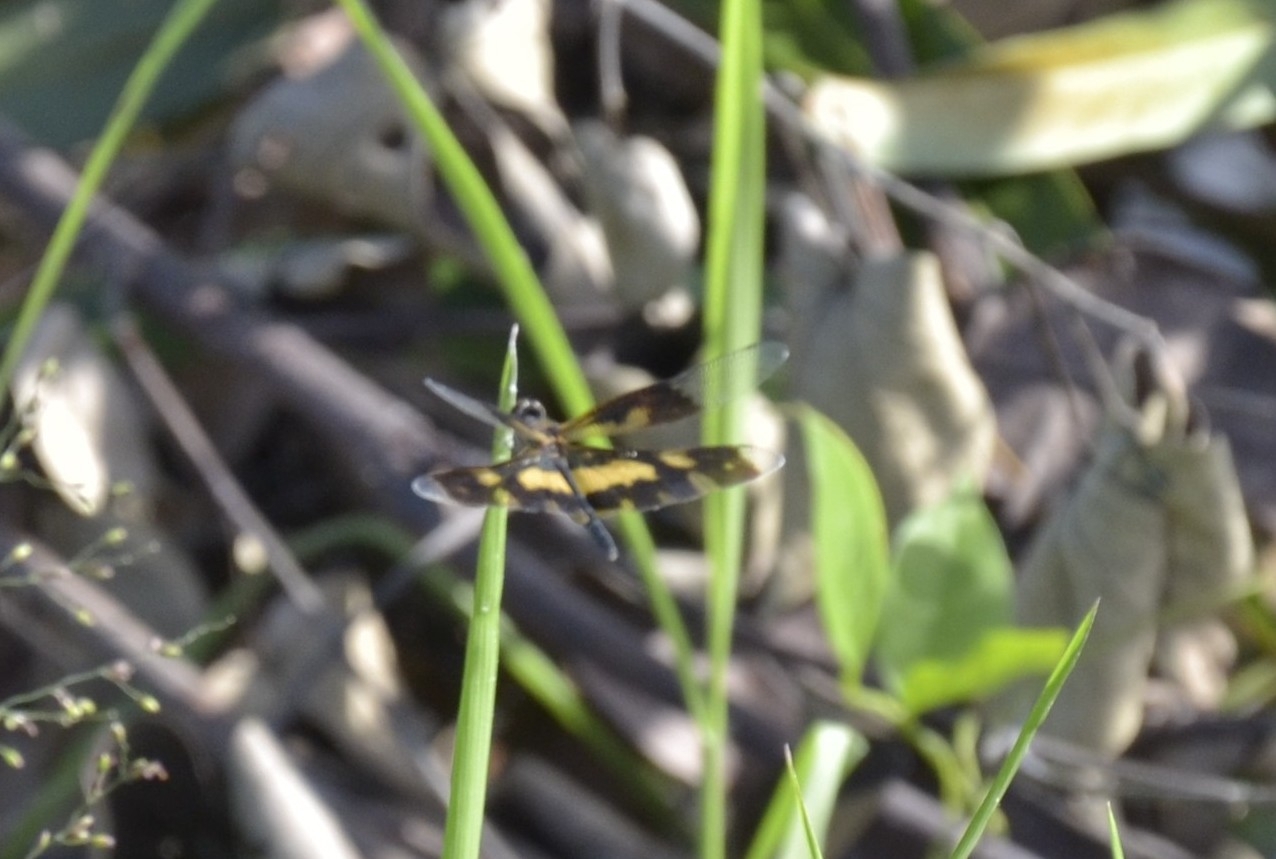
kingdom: Animalia
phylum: Arthropoda
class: Insecta
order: Odonata
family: Libellulidae
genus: Rhyothemis
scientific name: Rhyothemis variegata
